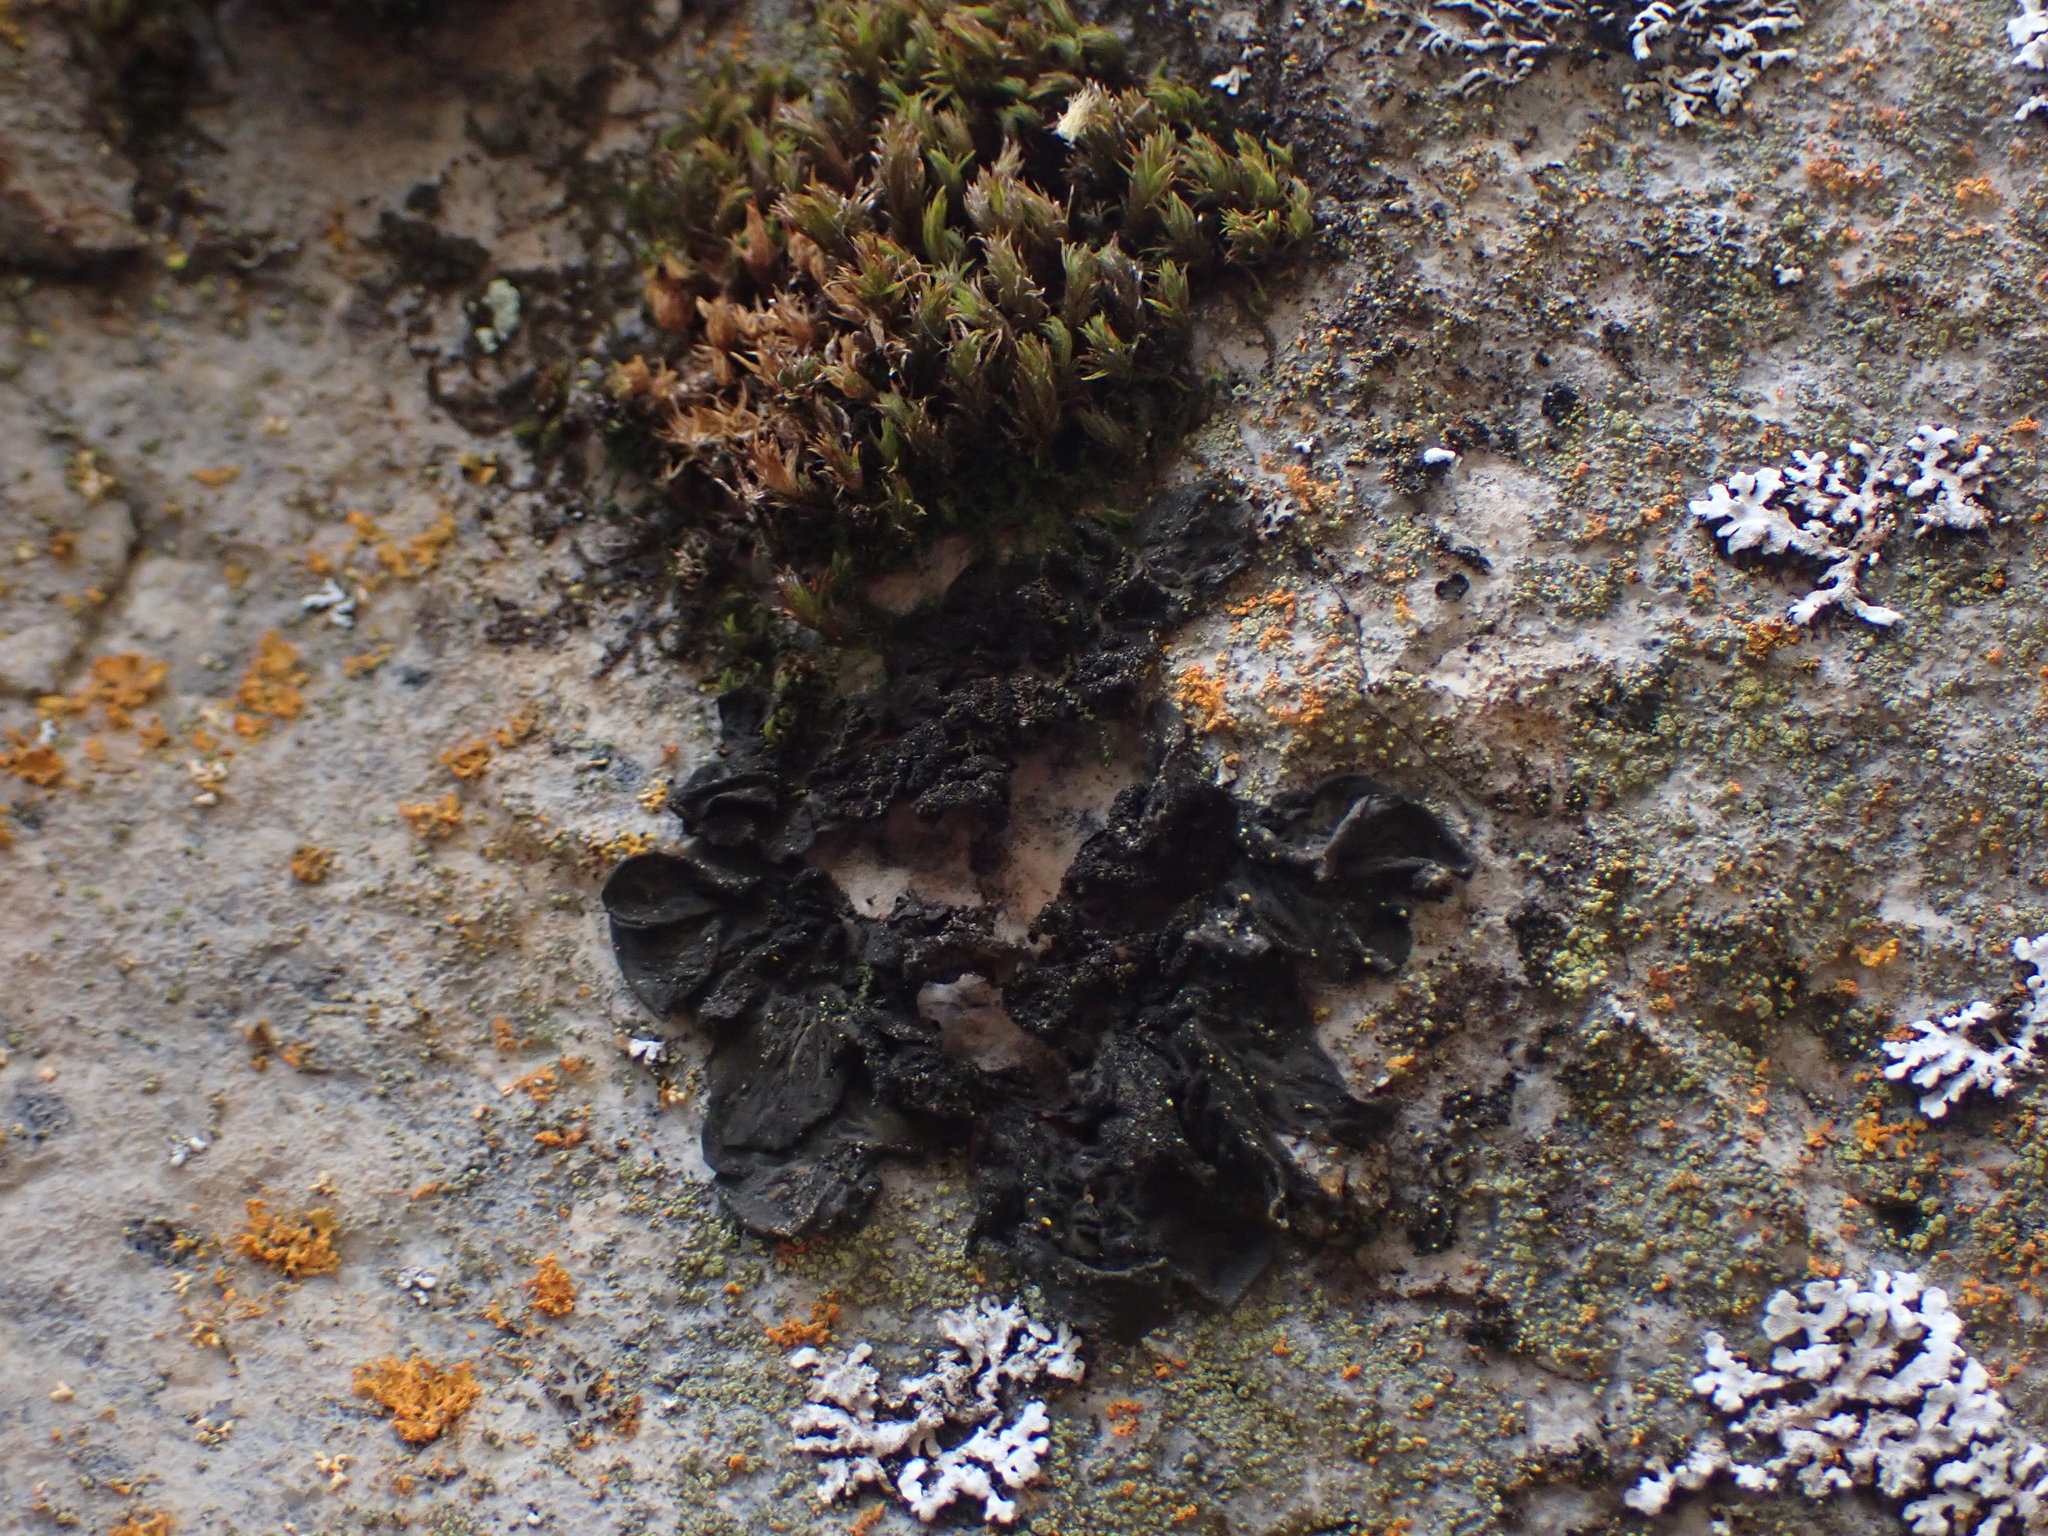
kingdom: Fungi
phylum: Ascomycota
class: Lecanoromycetes
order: Peltigerales
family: Collemataceae
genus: Collema
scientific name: Collema furfuraceum
